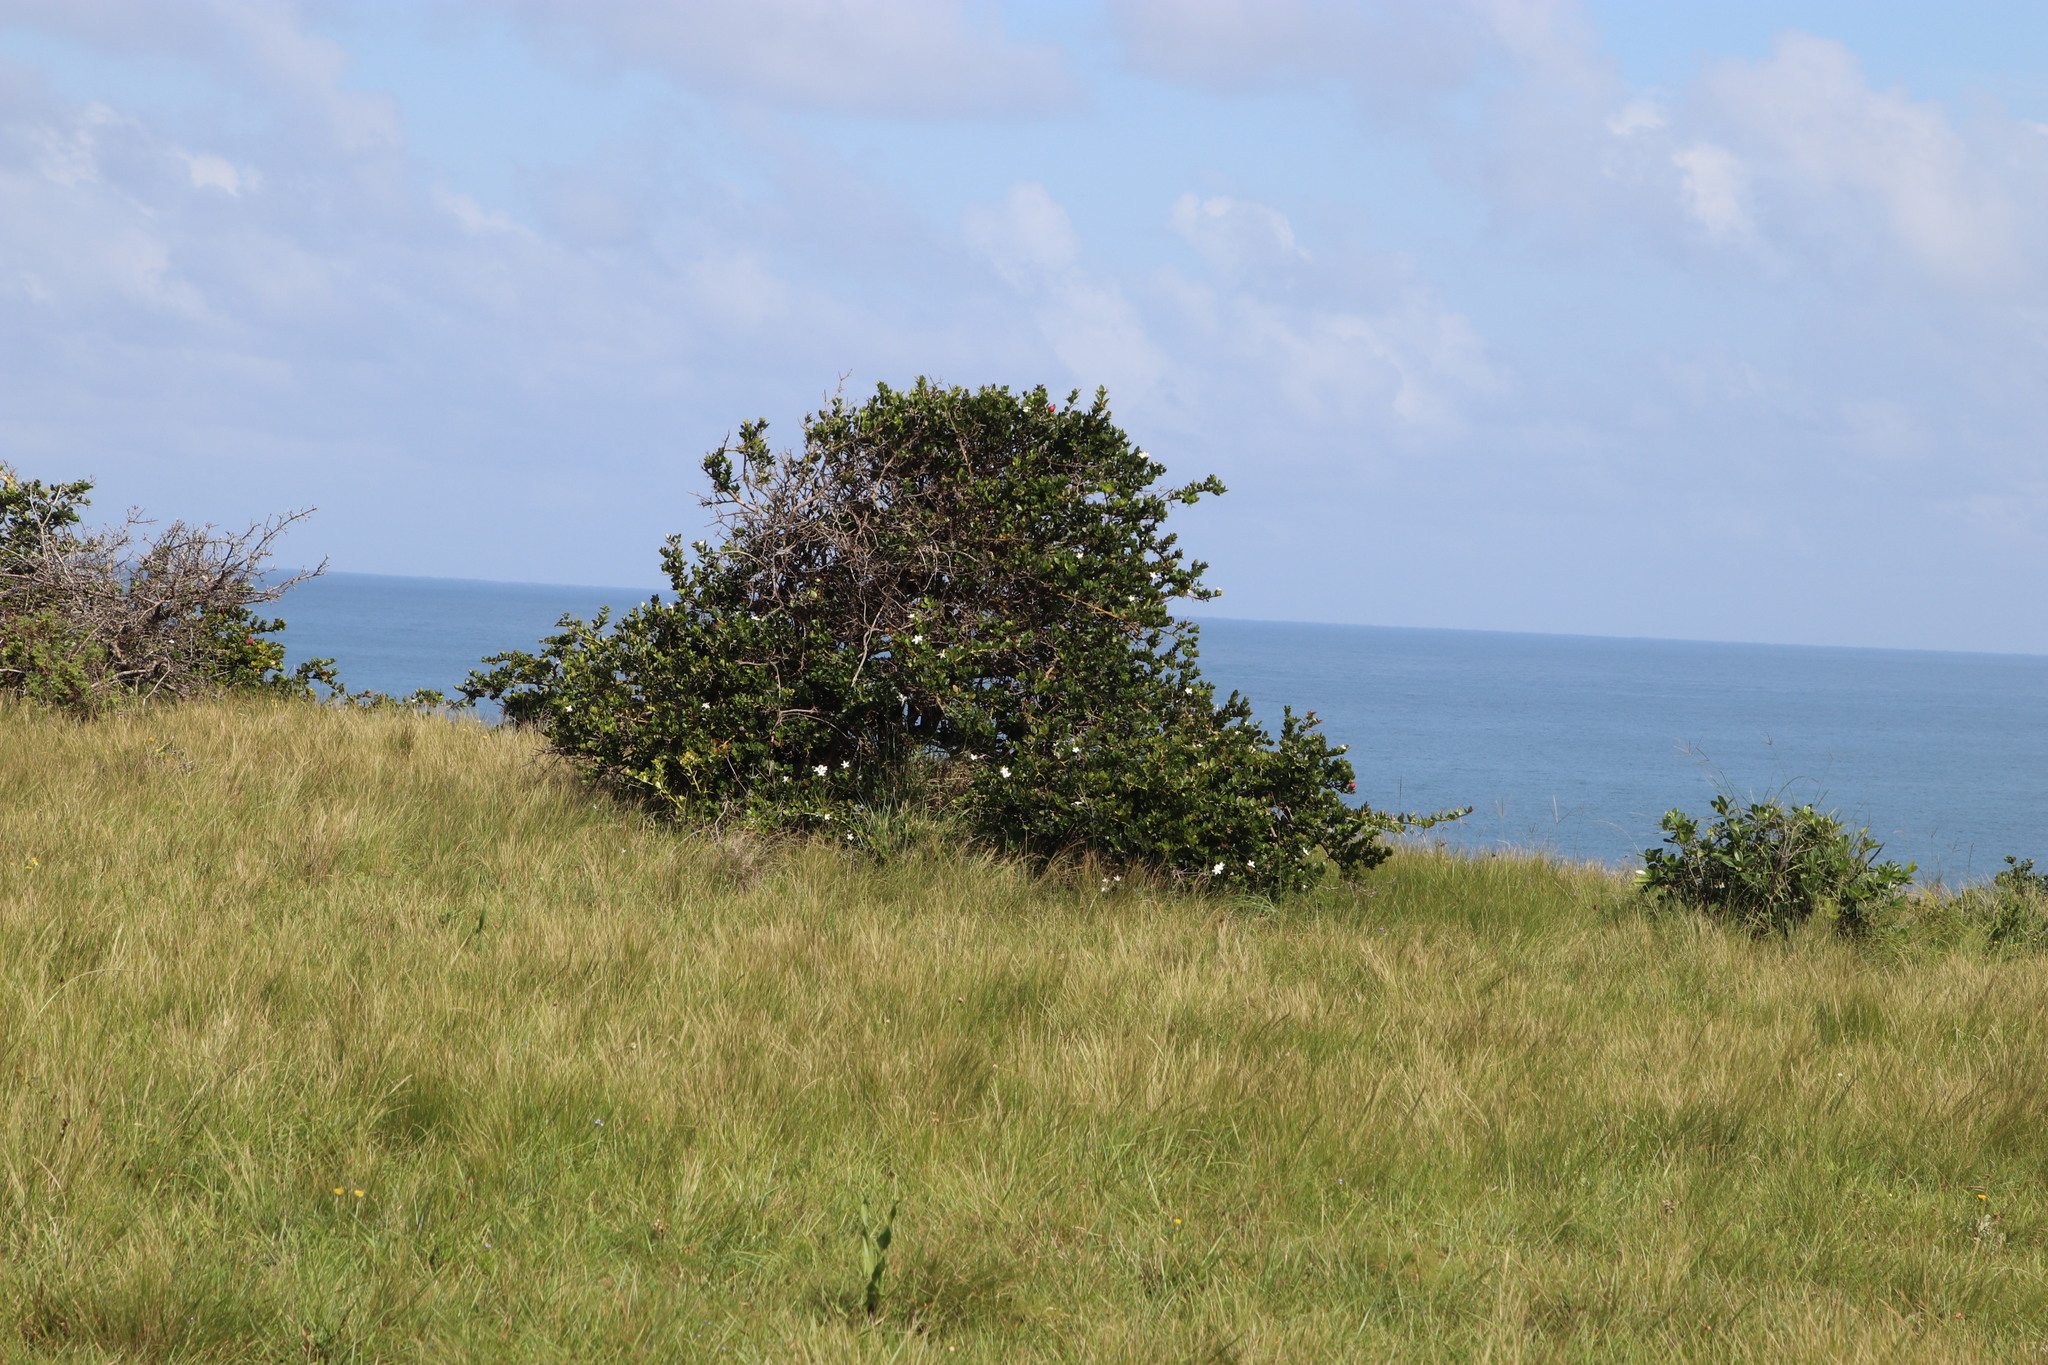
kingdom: Plantae
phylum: Tracheophyta
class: Magnoliopsida
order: Gentianales
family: Apocynaceae
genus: Carissa
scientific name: Carissa macrocarpa
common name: Natal plum
